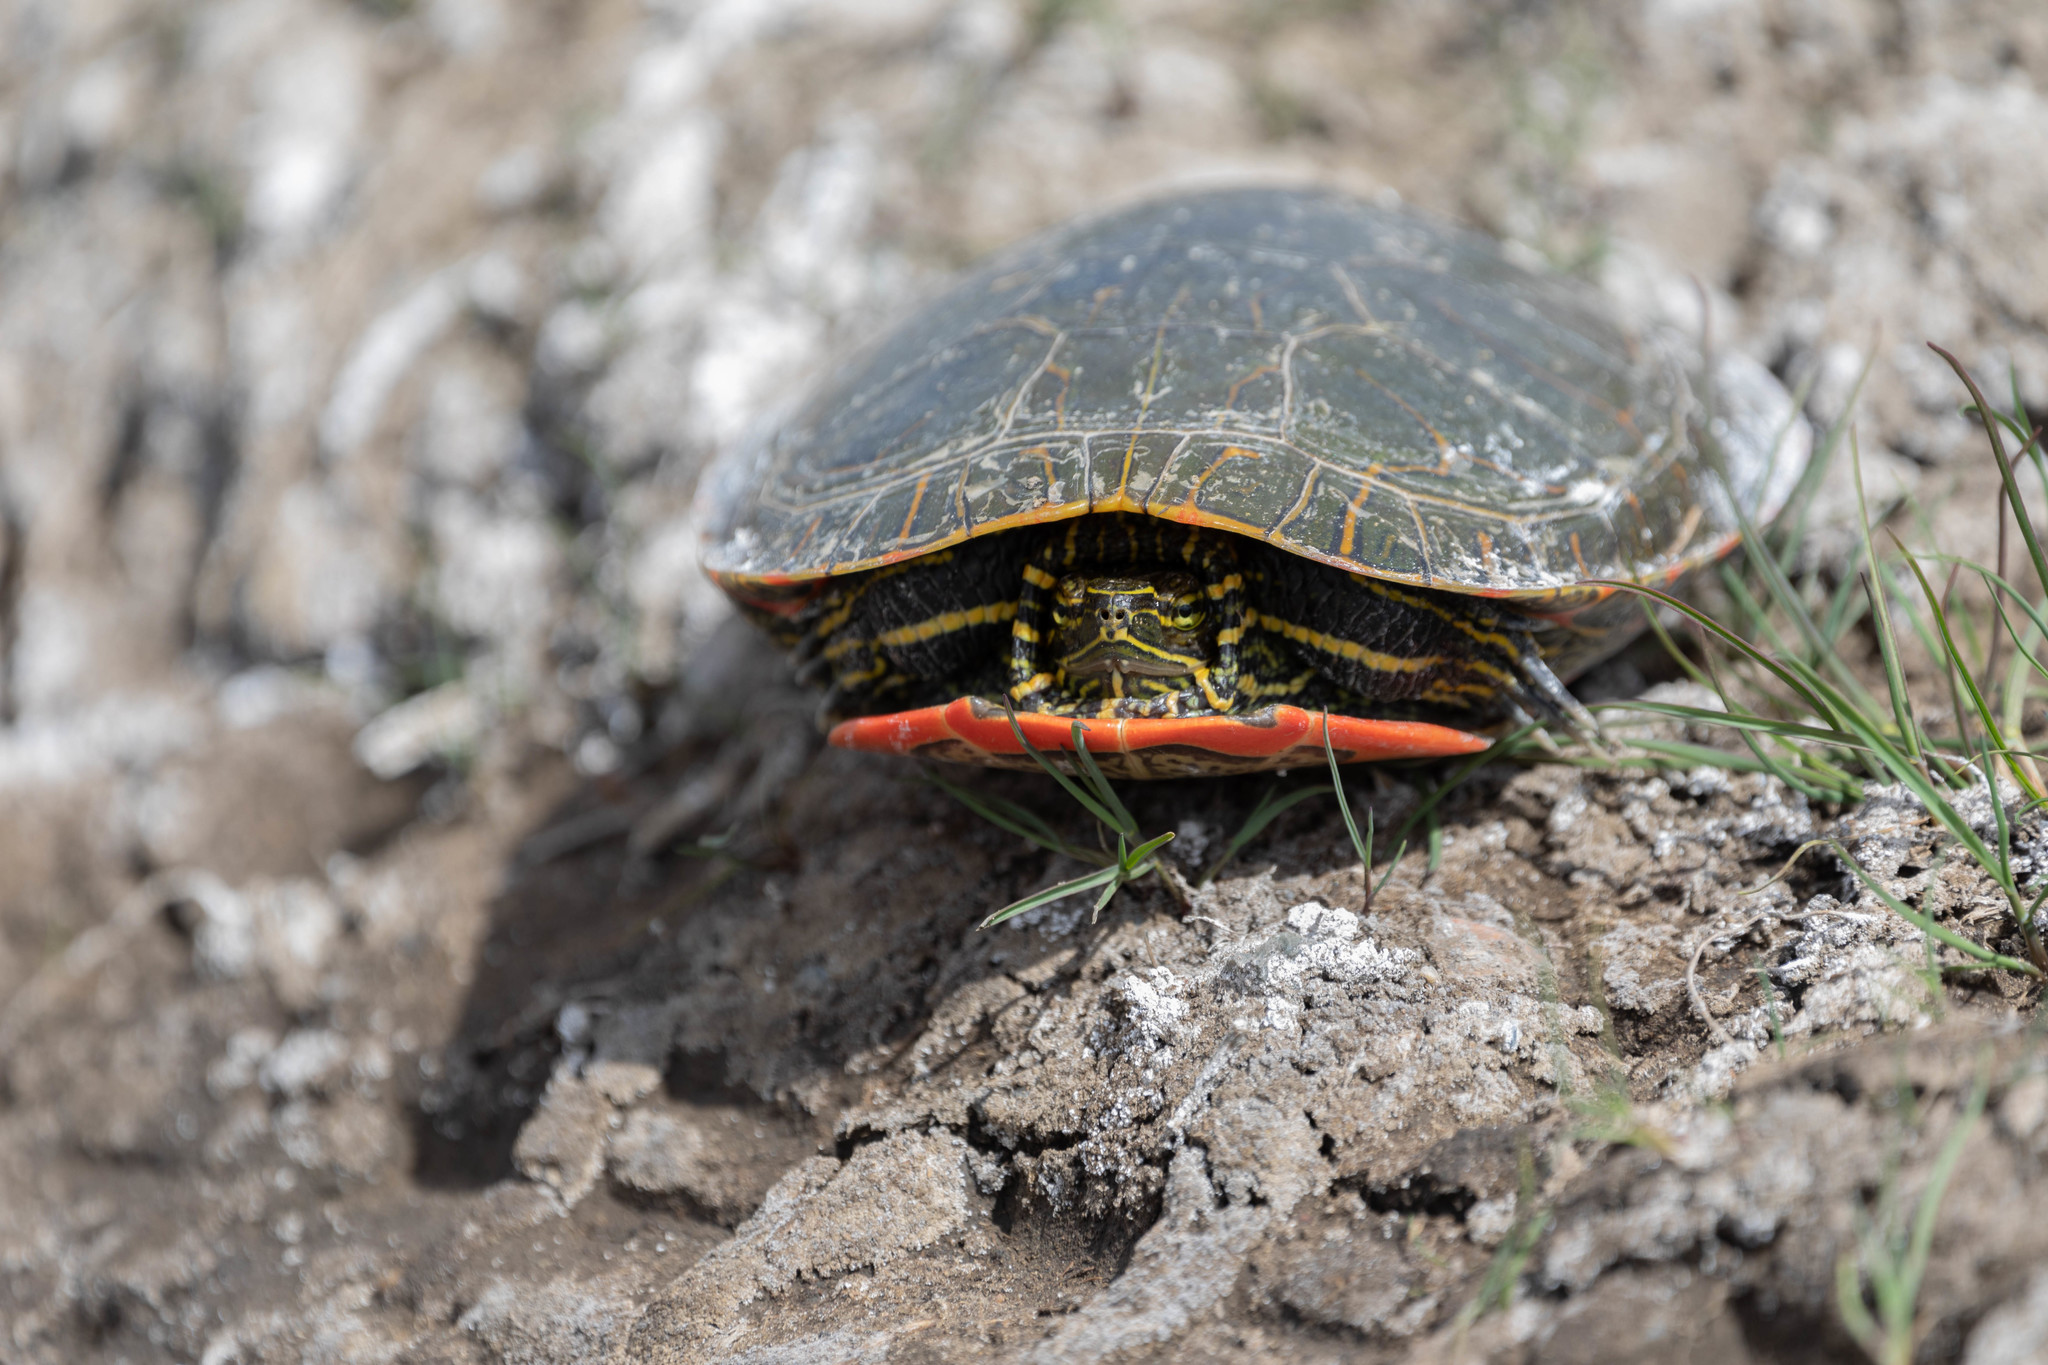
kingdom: Animalia
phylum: Chordata
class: Testudines
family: Emydidae
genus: Chrysemys
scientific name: Chrysemys picta
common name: Painted turtle
